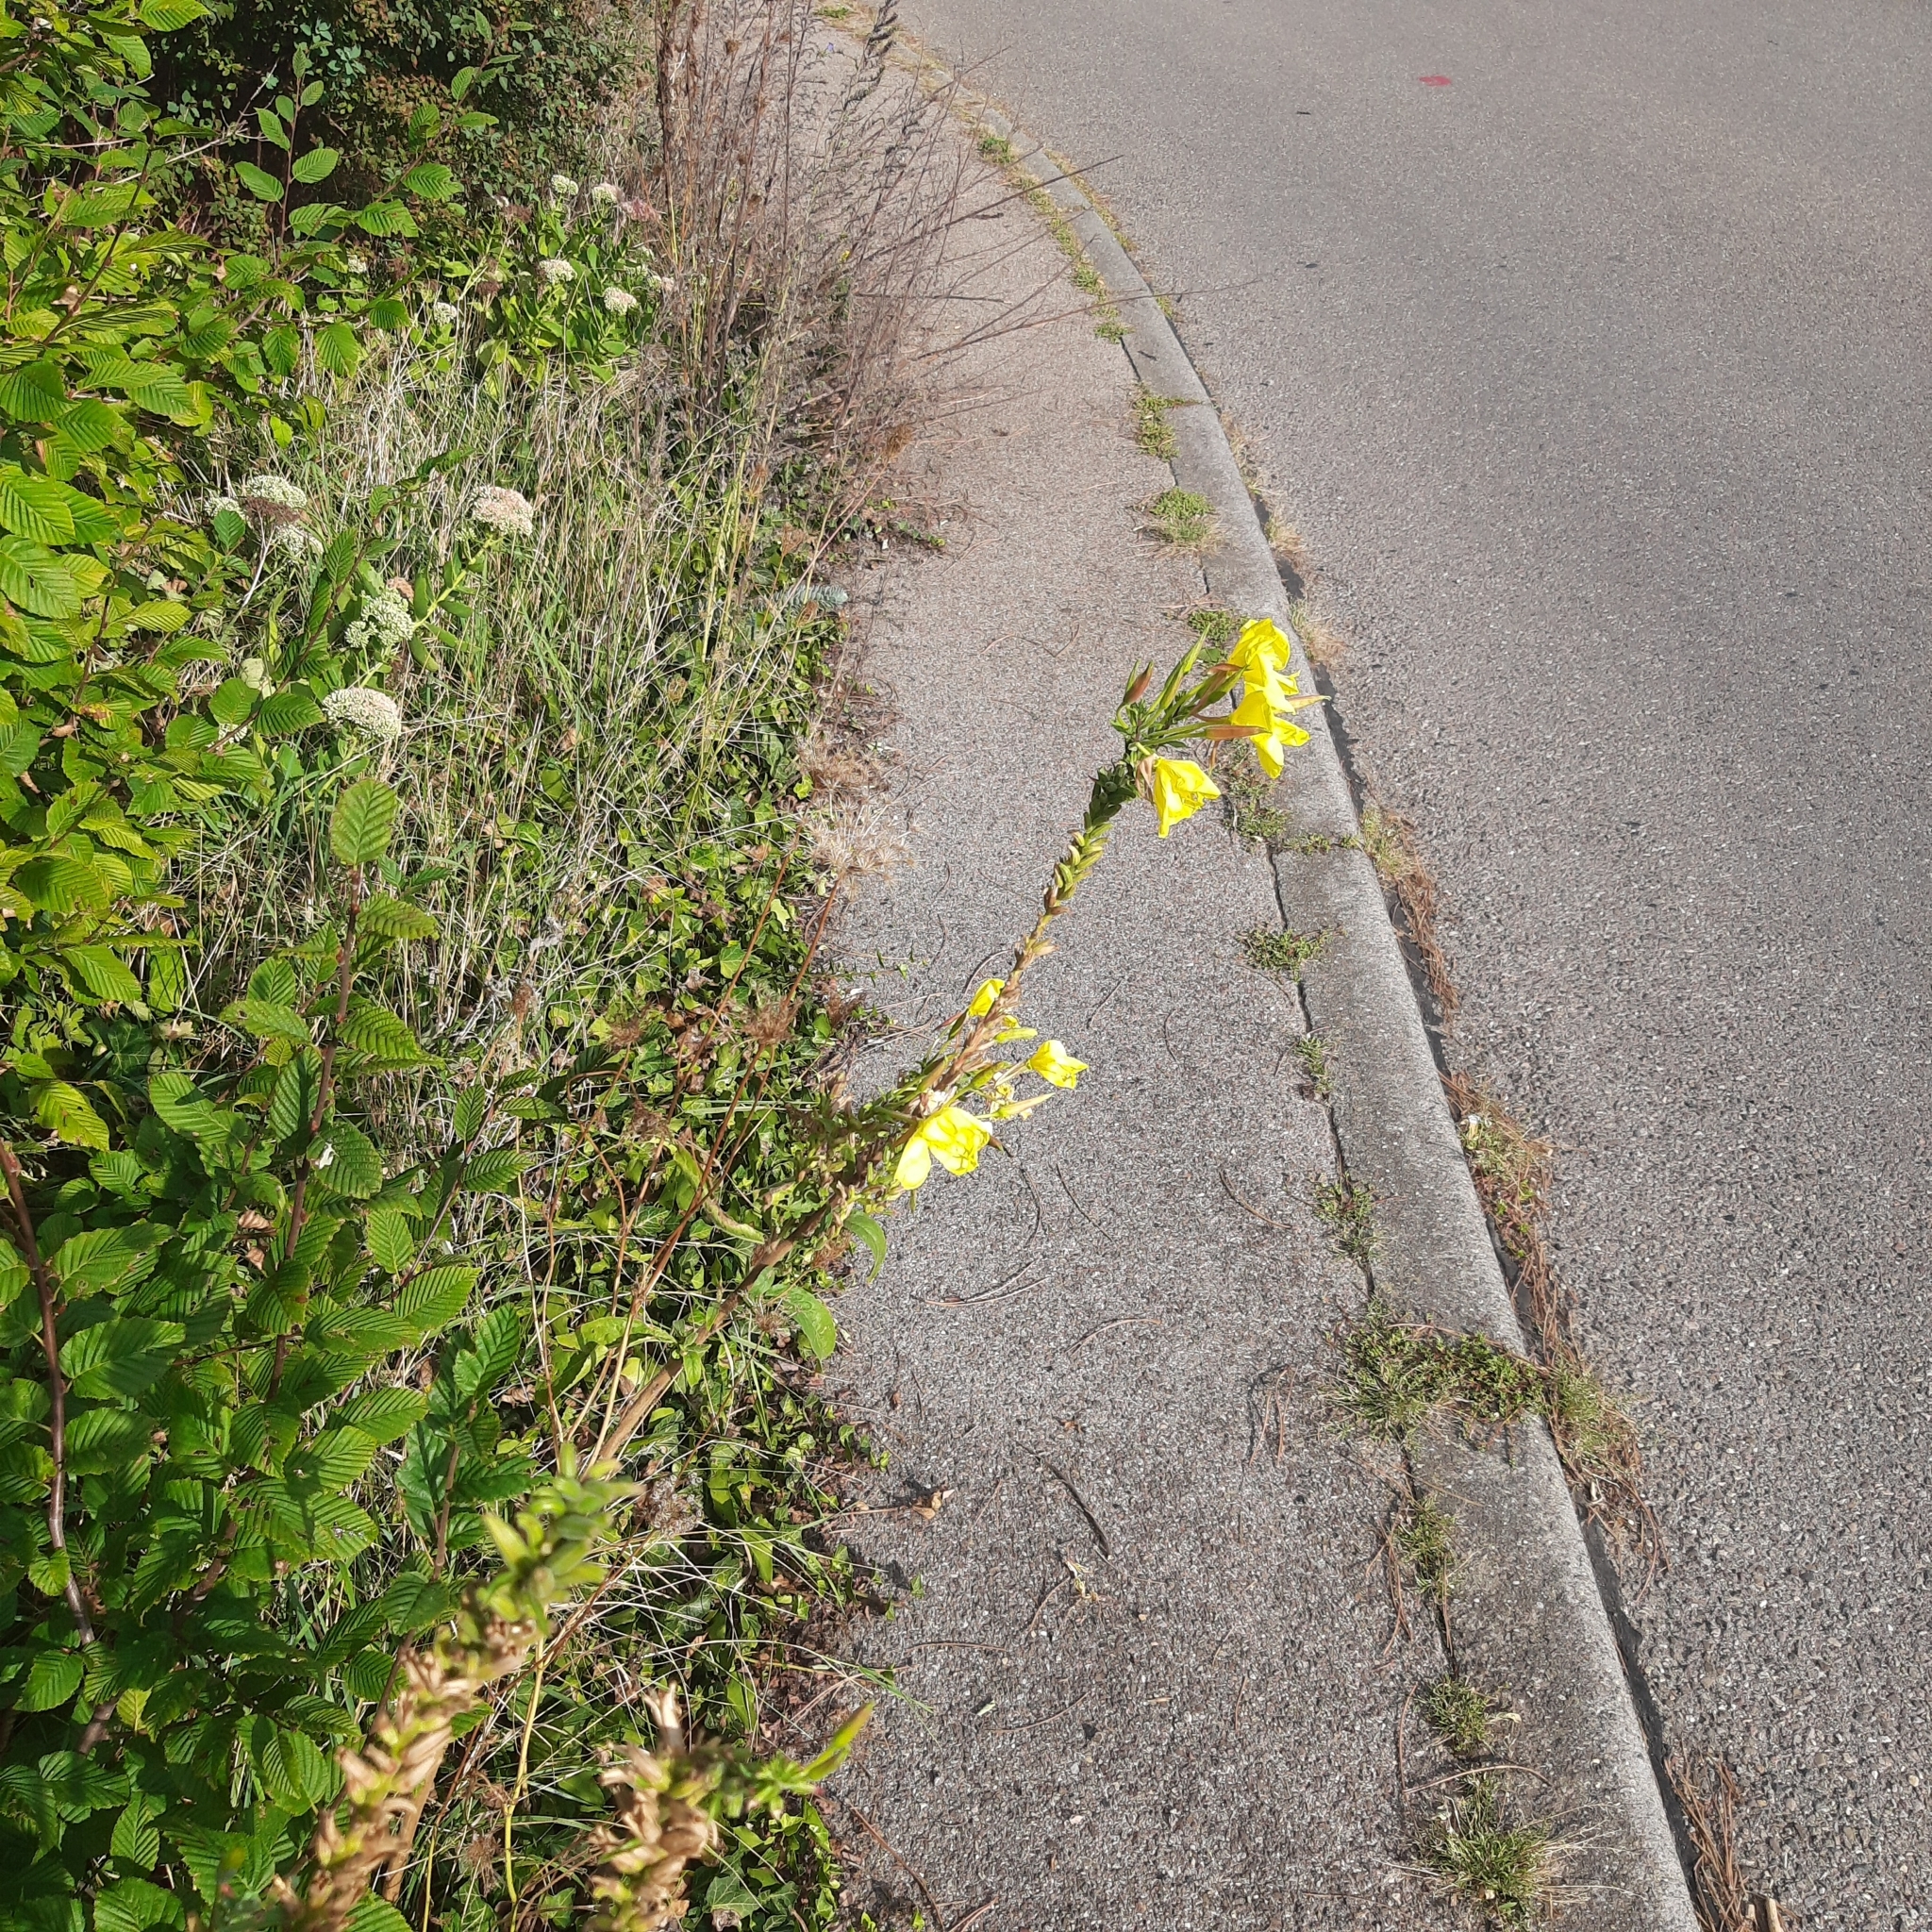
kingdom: Plantae
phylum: Tracheophyta
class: Magnoliopsida
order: Myrtales
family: Onagraceae
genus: Oenothera
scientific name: Oenothera glazioviana
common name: Large-flowered evening-primrose
